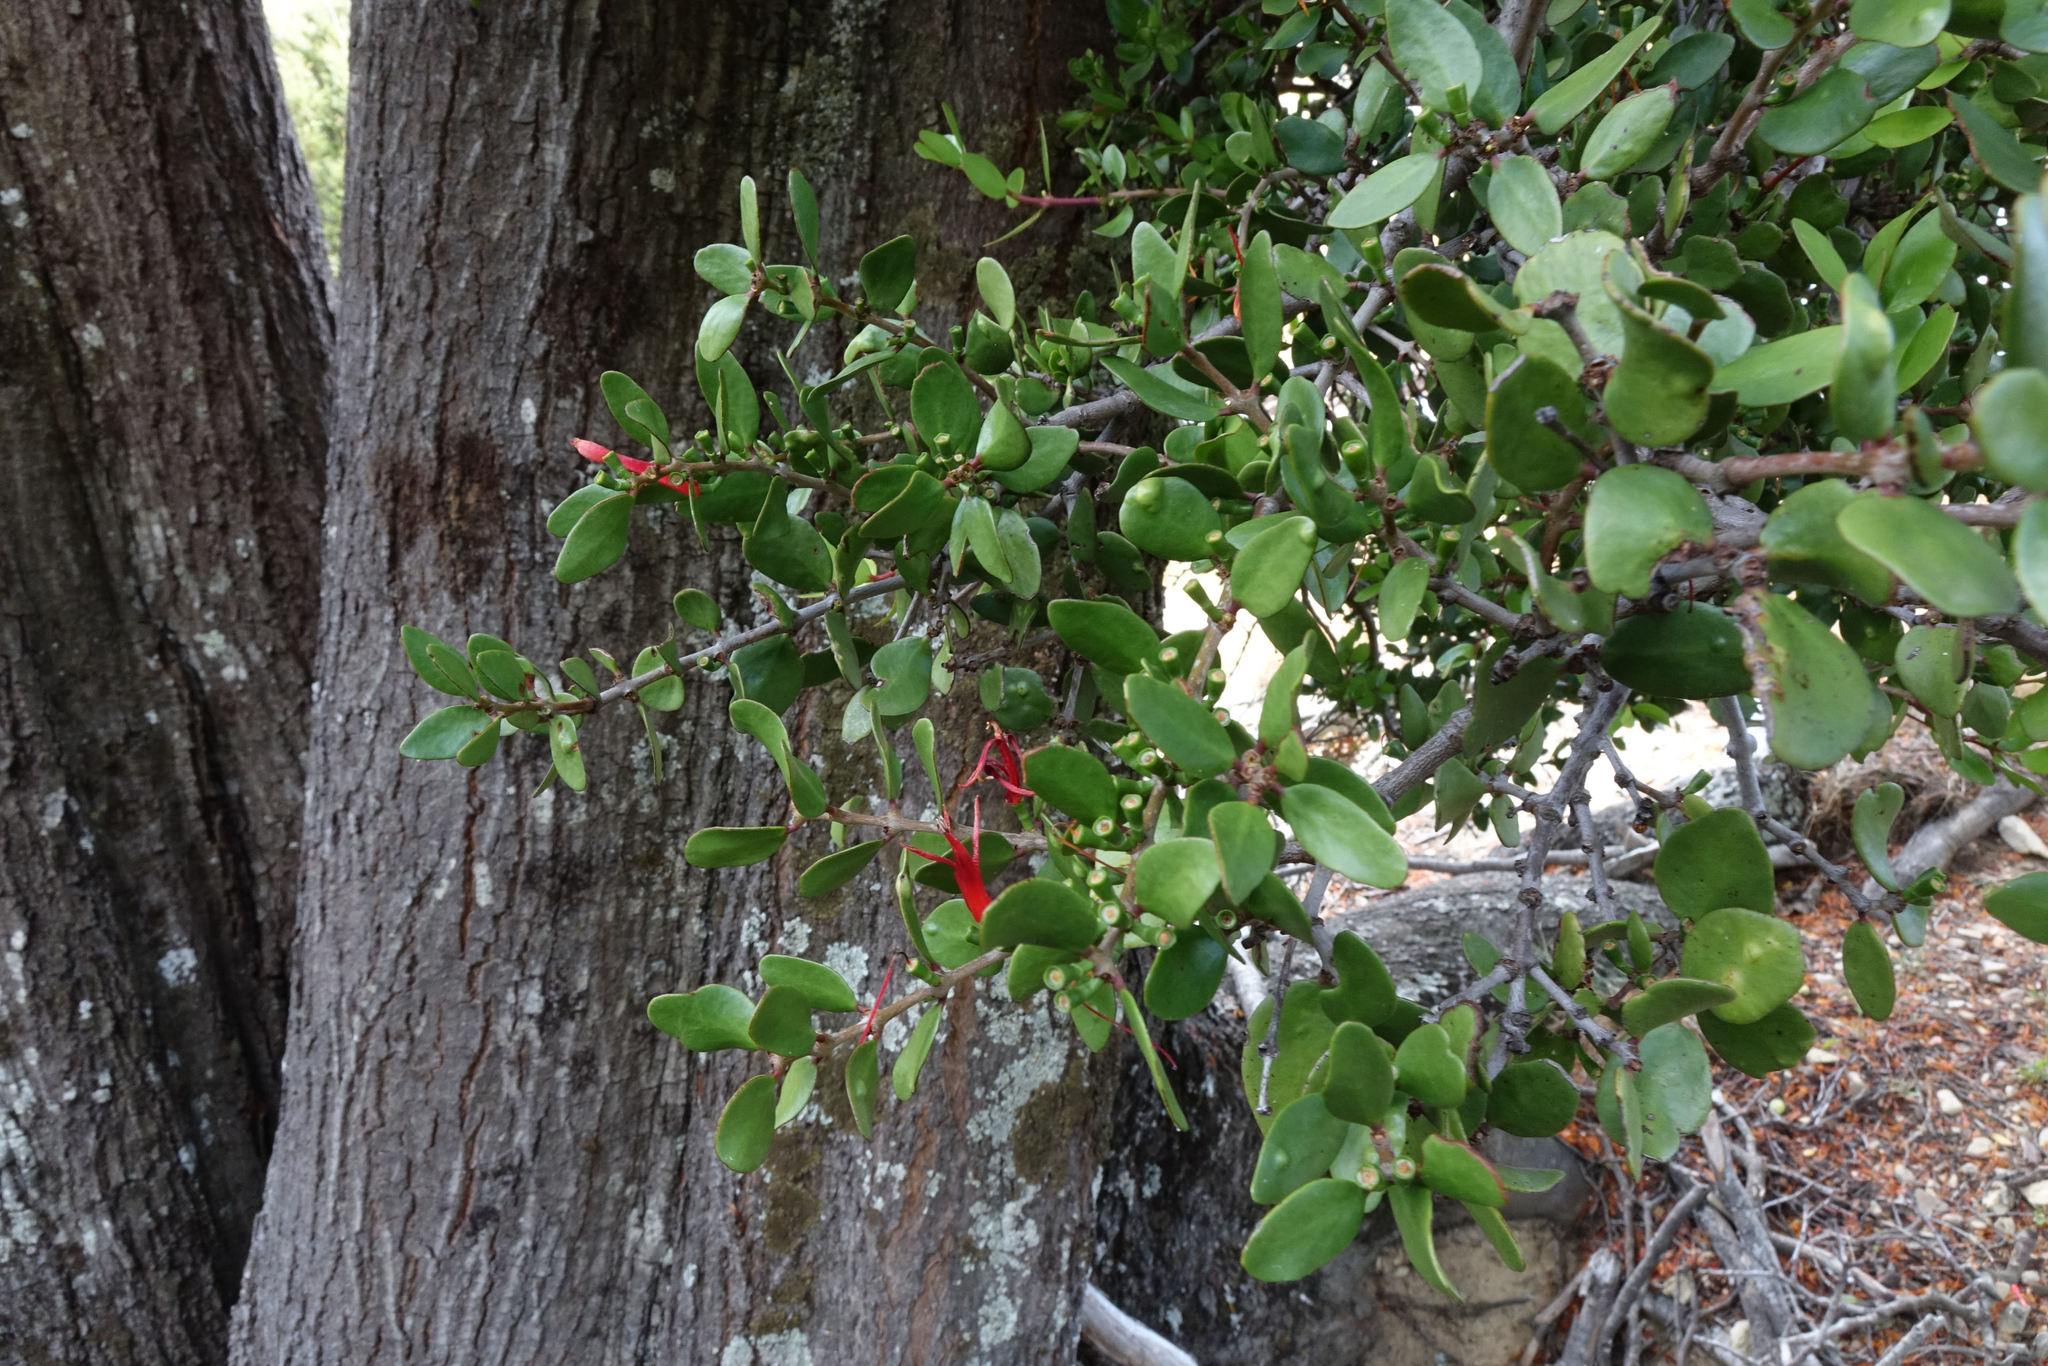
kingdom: Plantae
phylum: Tracheophyta
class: Magnoliopsida
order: Santalales
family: Loranthaceae
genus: Peraxilla
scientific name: Peraxilla tetrapetala
